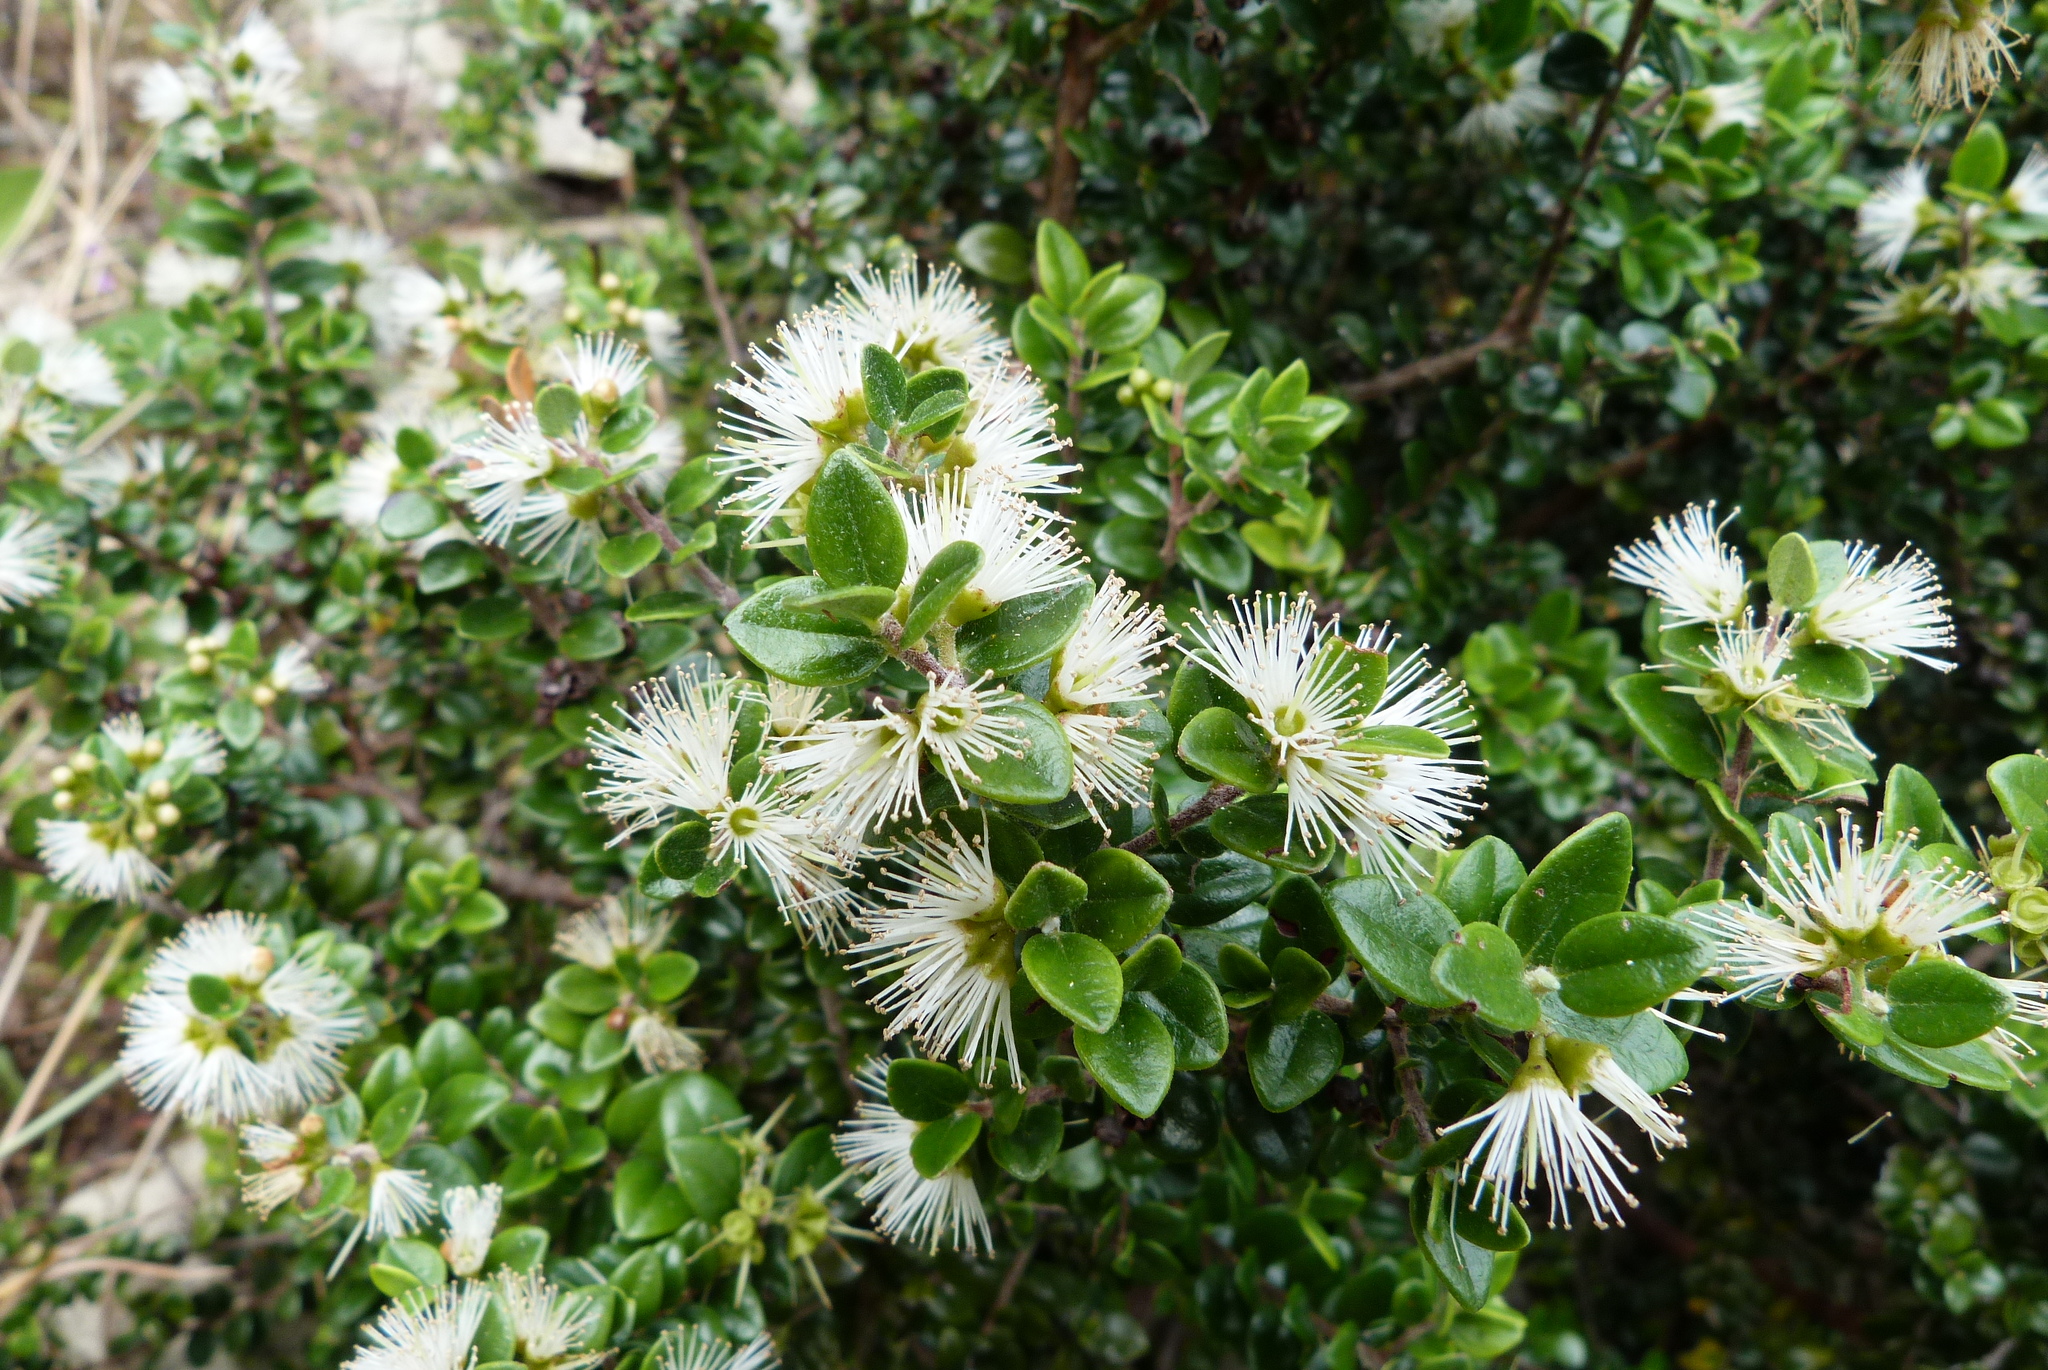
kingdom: Plantae
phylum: Tracheophyta
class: Magnoliopsida
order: Myrtales
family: Myrtaceae
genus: Metrosideros
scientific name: Metrosideros perforata
